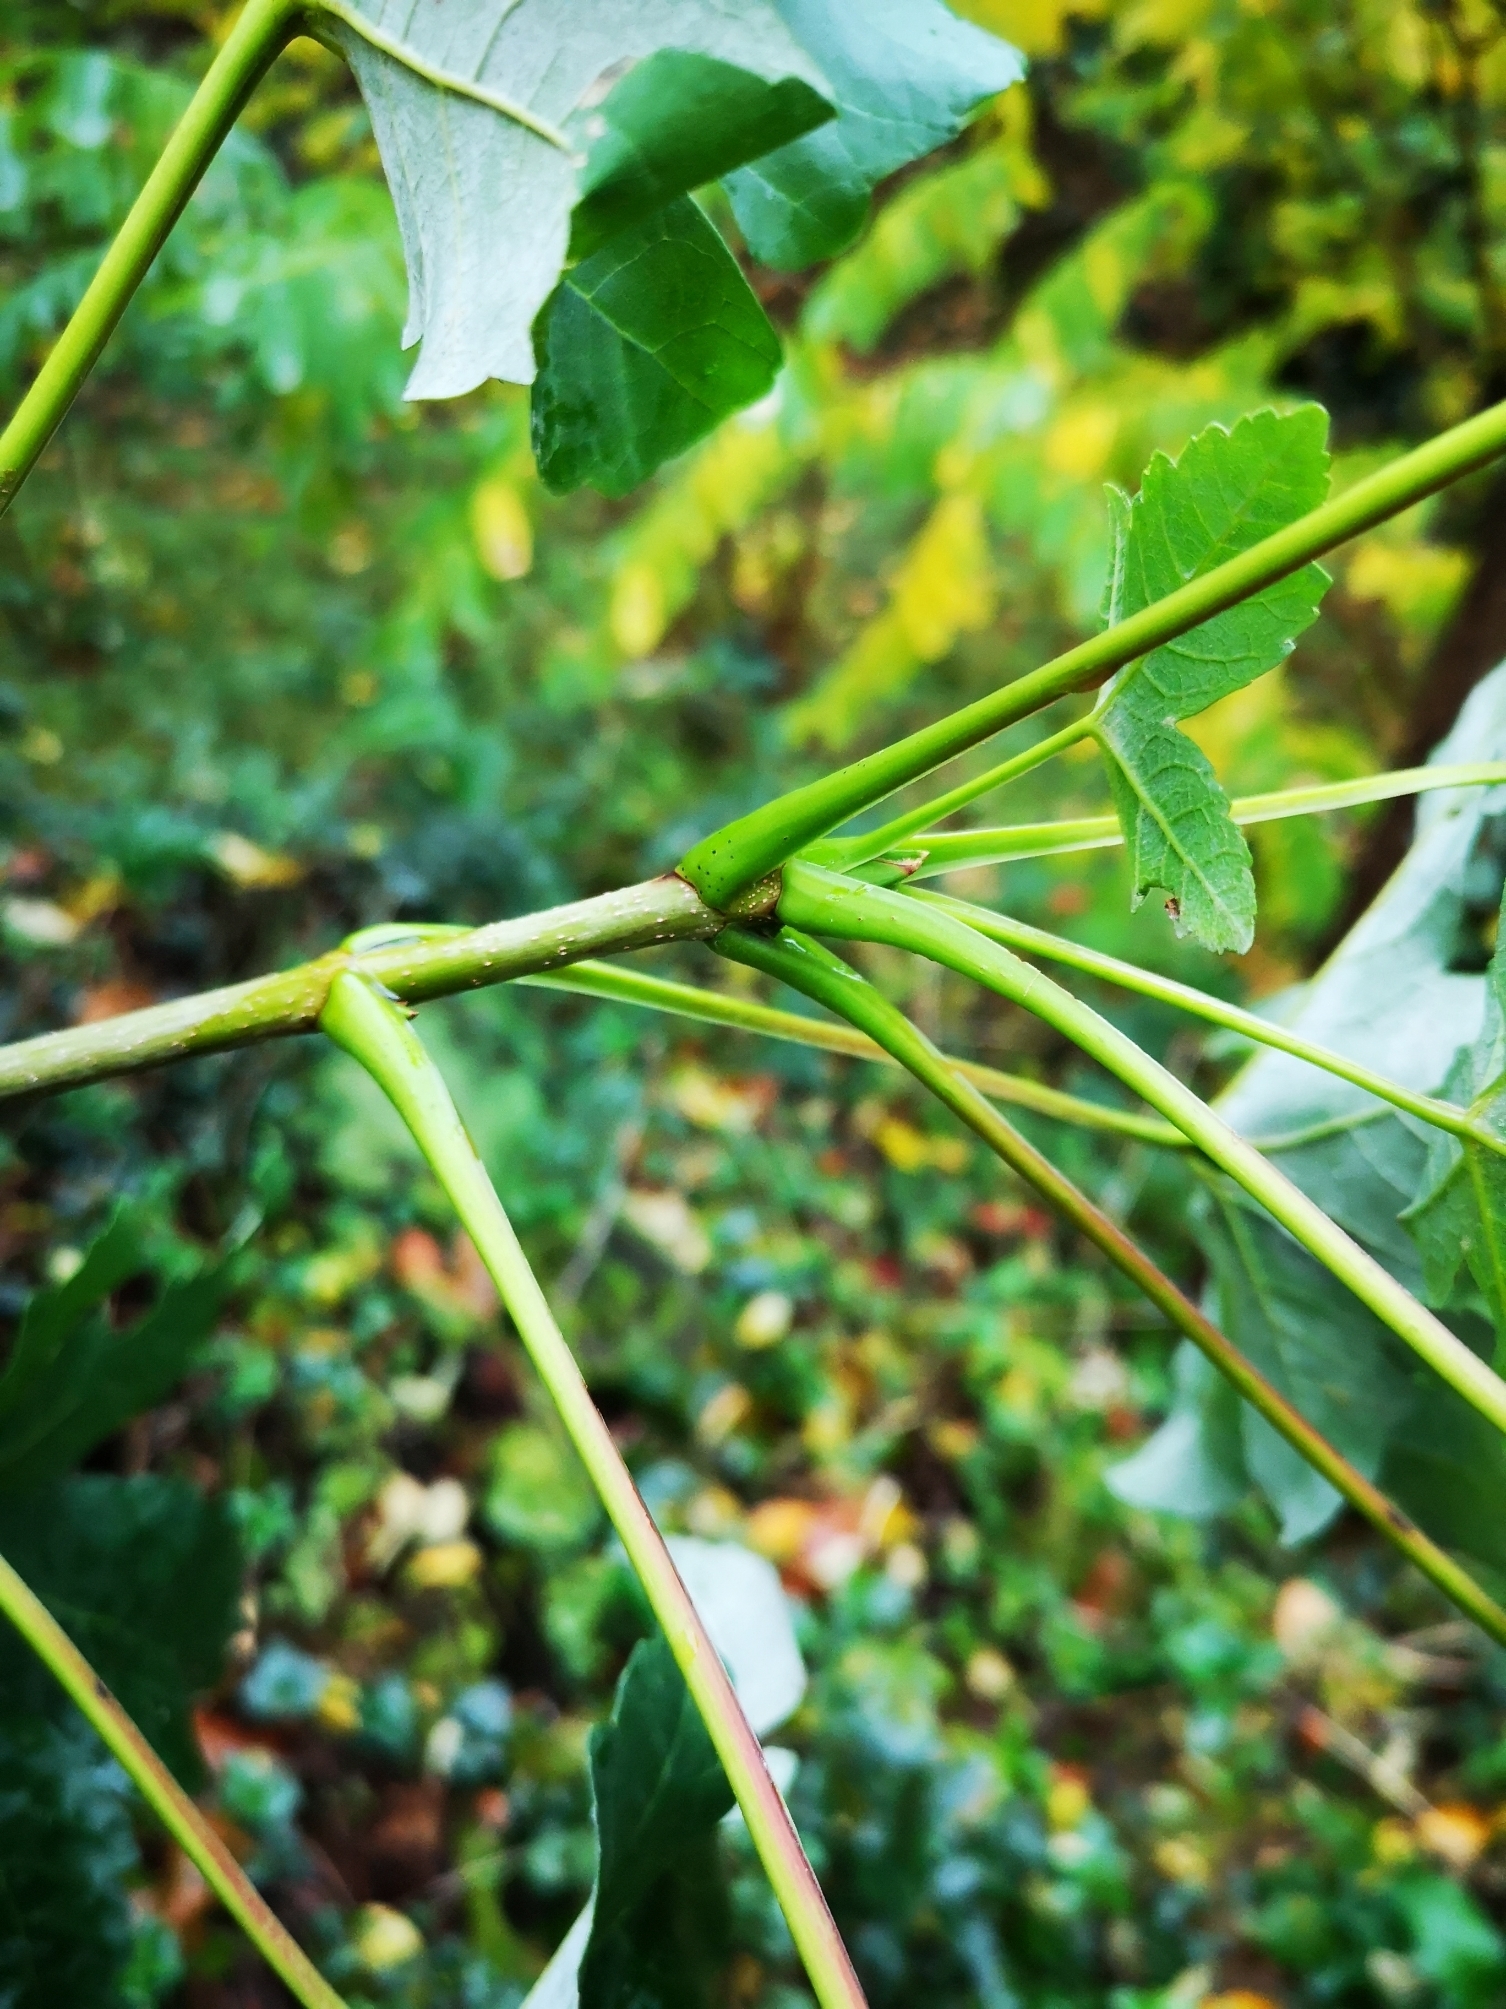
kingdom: Plantae
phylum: Tracheophyta
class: Magnoliopsida
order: Sapindales
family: Sapindaceae
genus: Acer
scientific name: Acer pseudoplatanus
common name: Sycamore
